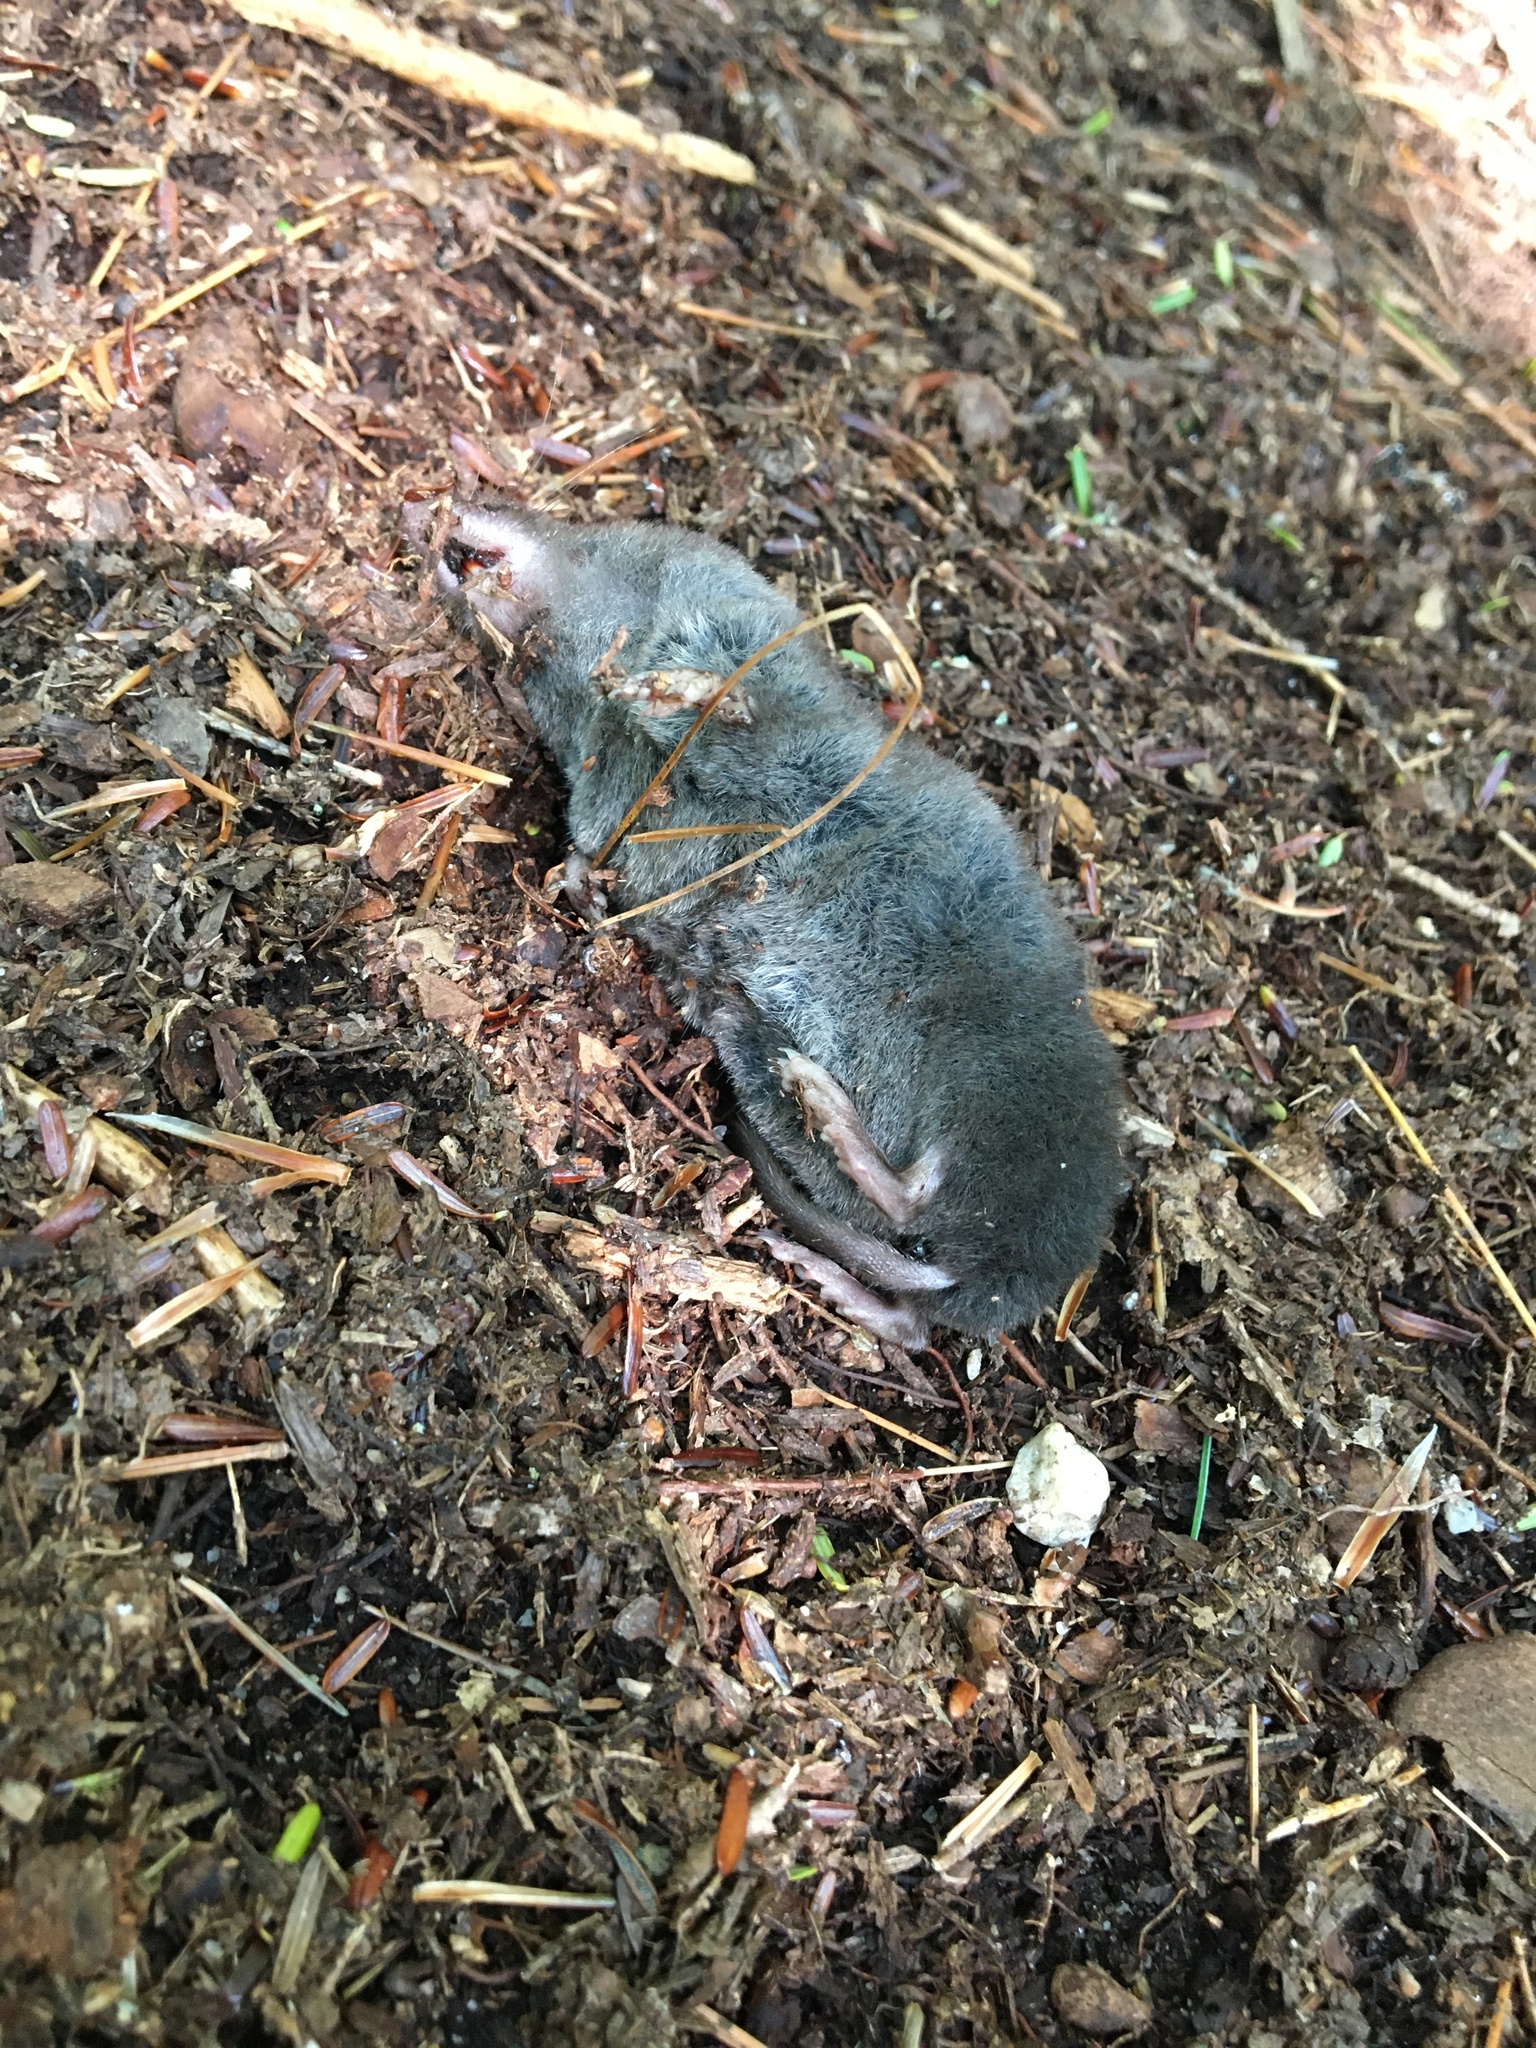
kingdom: Animalia
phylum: Chordata
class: Mammalia
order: Soricomorpha
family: Soricidae
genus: Blarina
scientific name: Blarina brevicauda
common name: Northern short-tailed shrew
